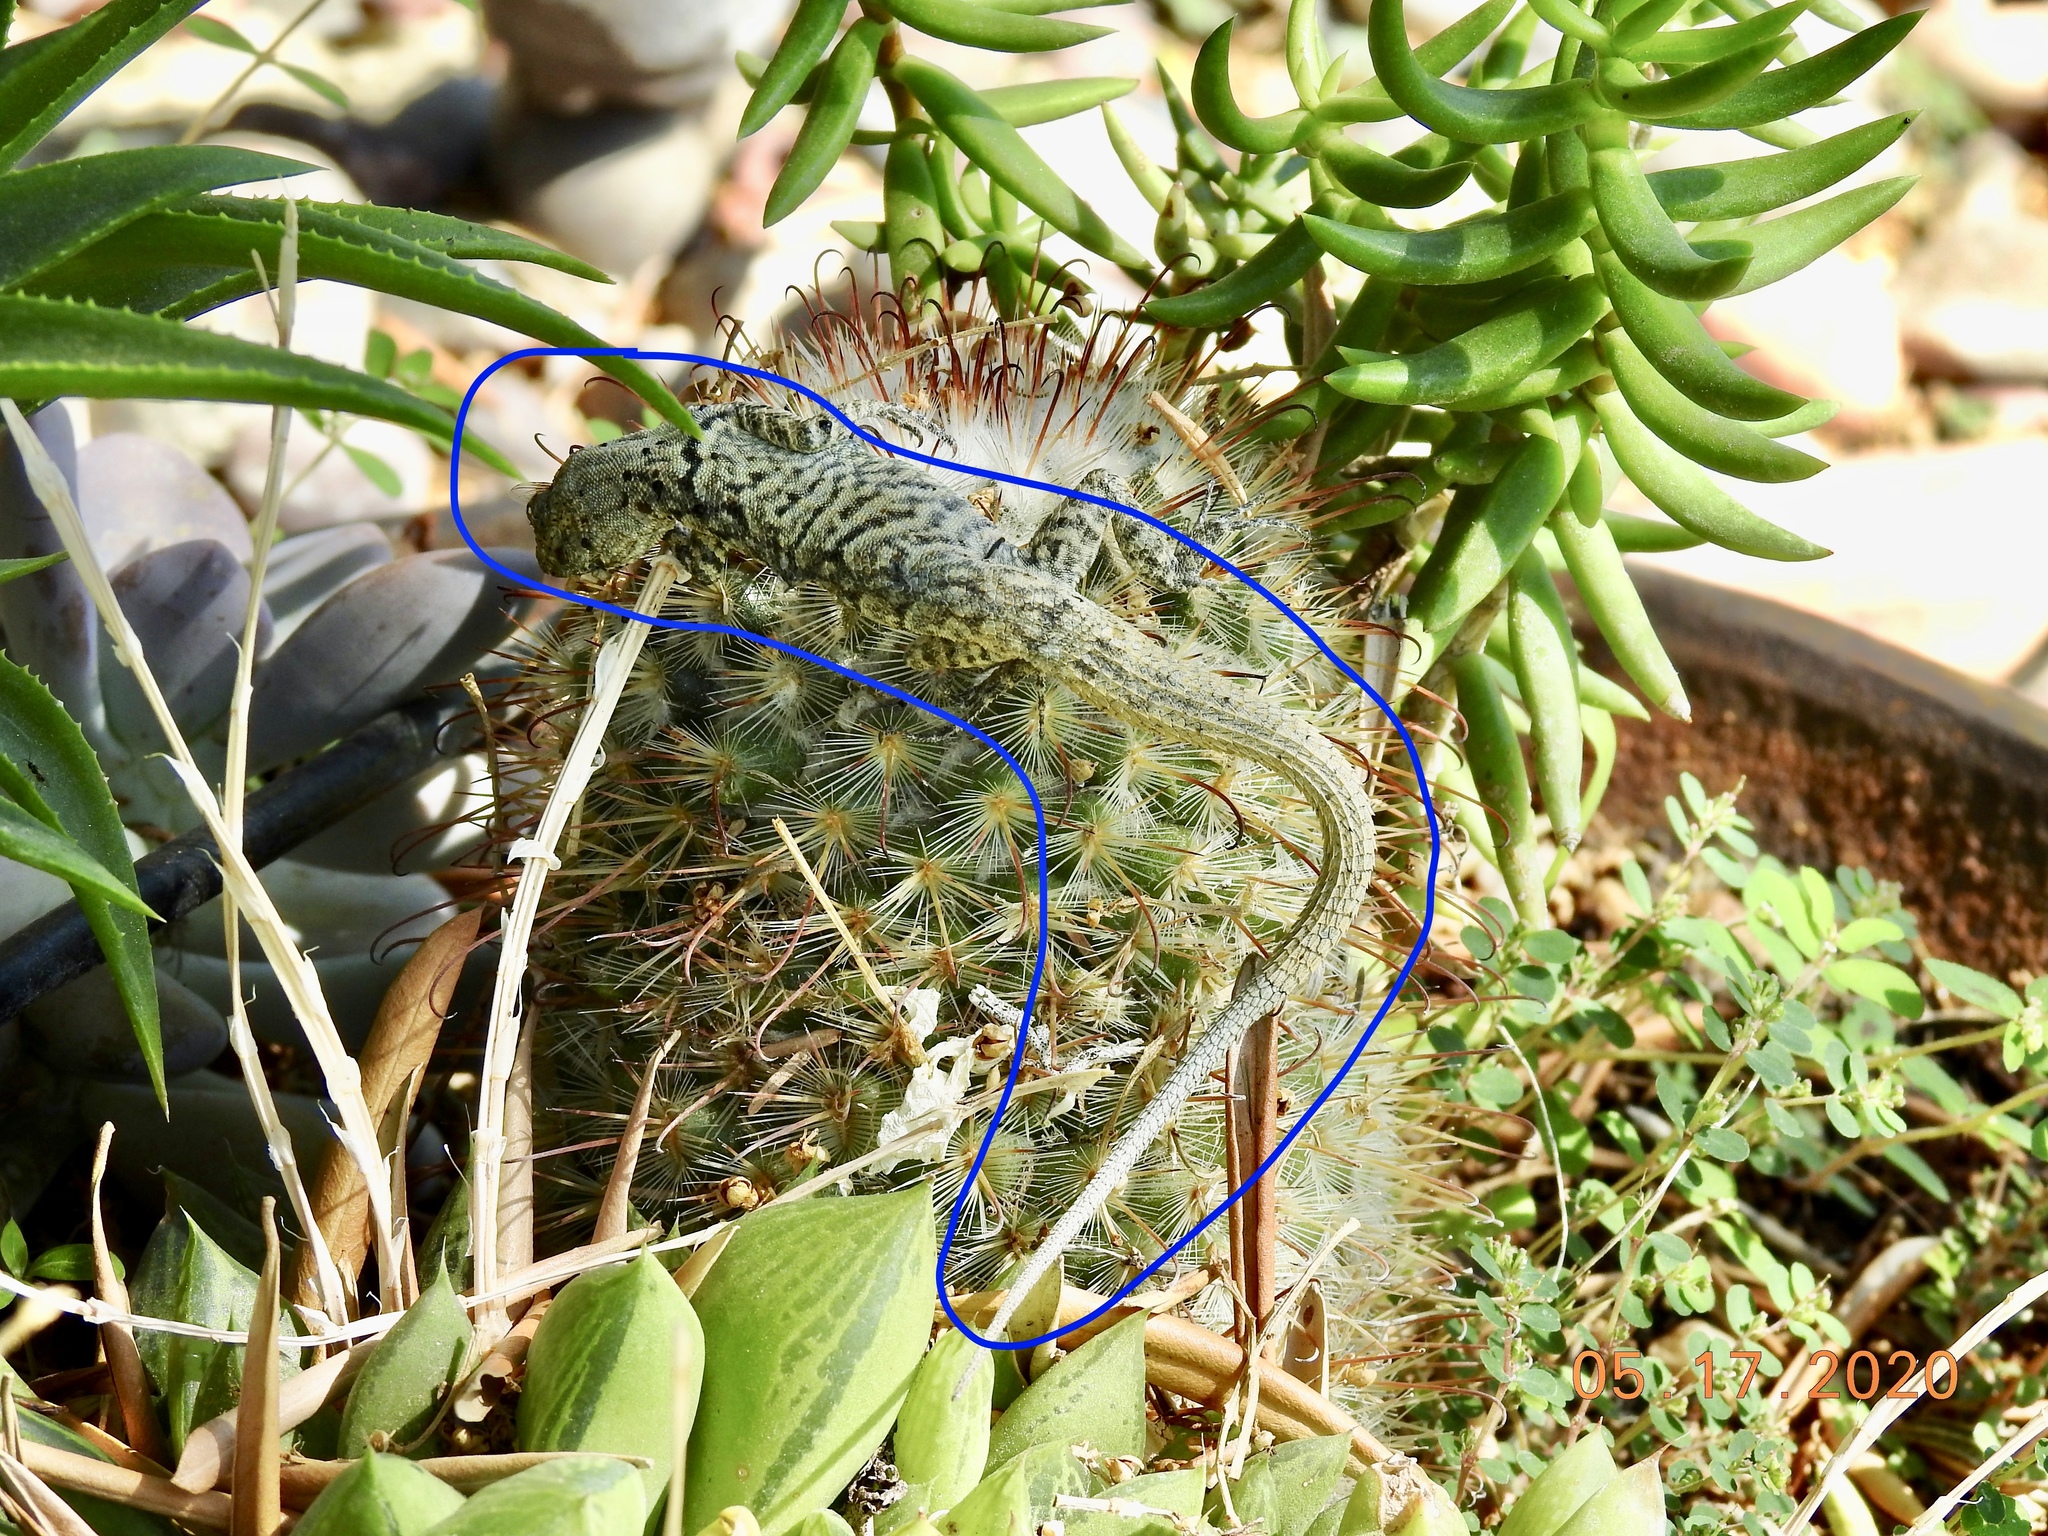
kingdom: Animalia
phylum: Chordata
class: Squamata
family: Phrynosomatidae
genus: Urosaurus
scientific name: Urosaurus graciosus
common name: Long-tailed brush lizard
